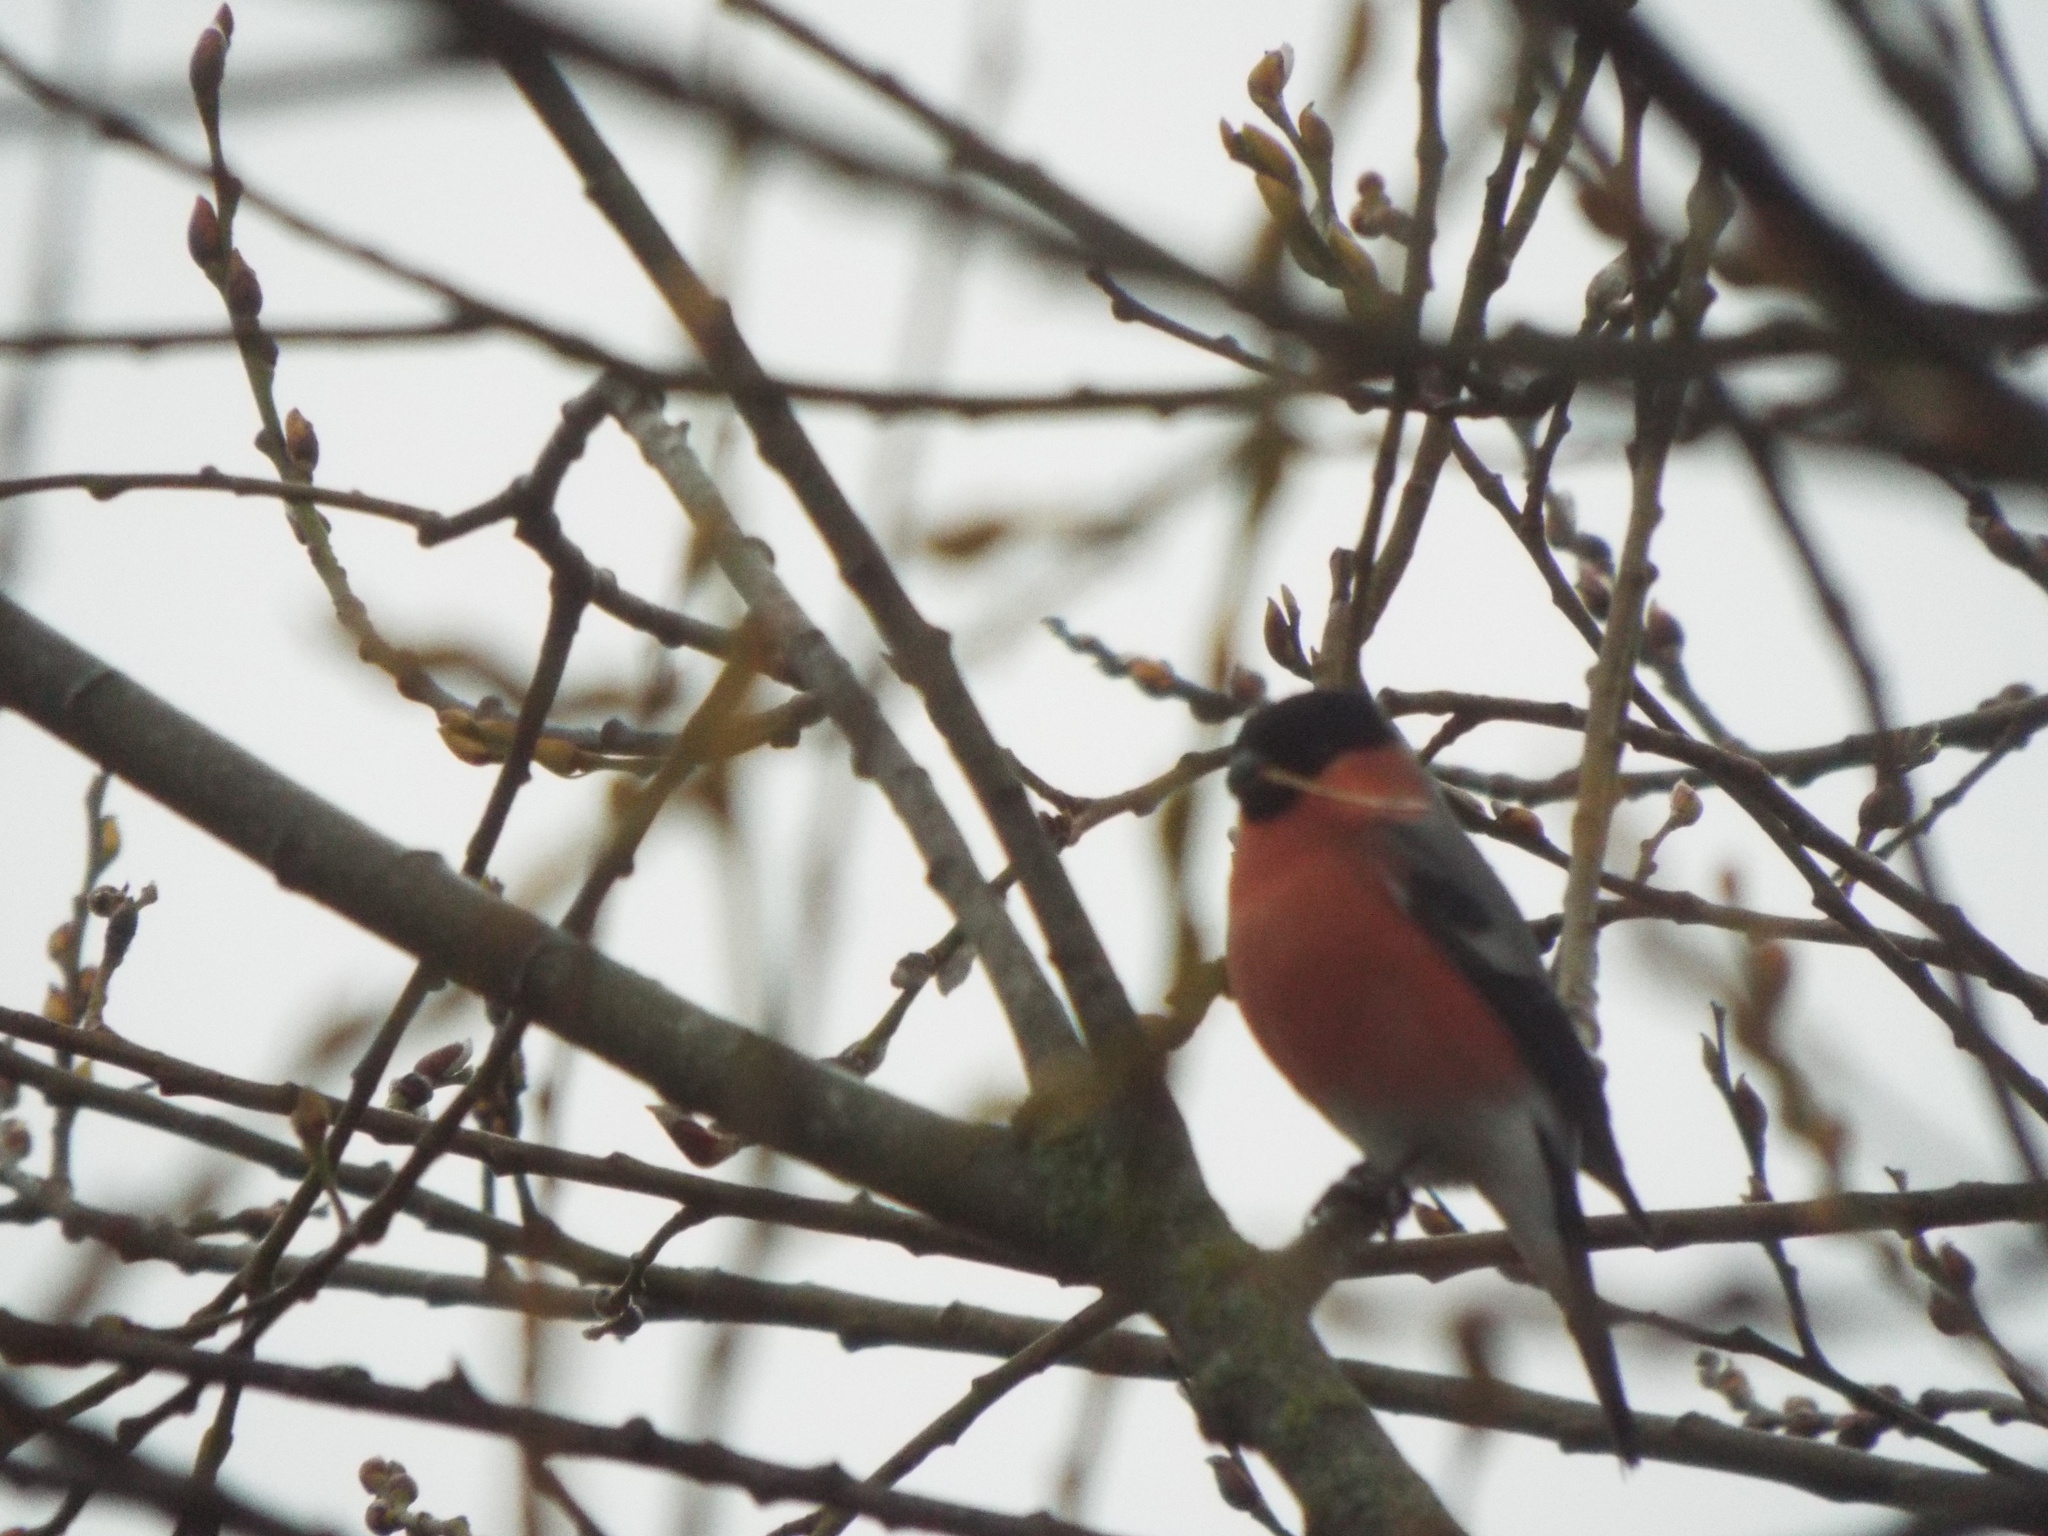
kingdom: Animalia
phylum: Chordata
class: Aves
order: Passeriformes
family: Fringillidae
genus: Pyrrhula
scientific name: Pyrrhula pyrrhula
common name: Eurasian bullfinch
